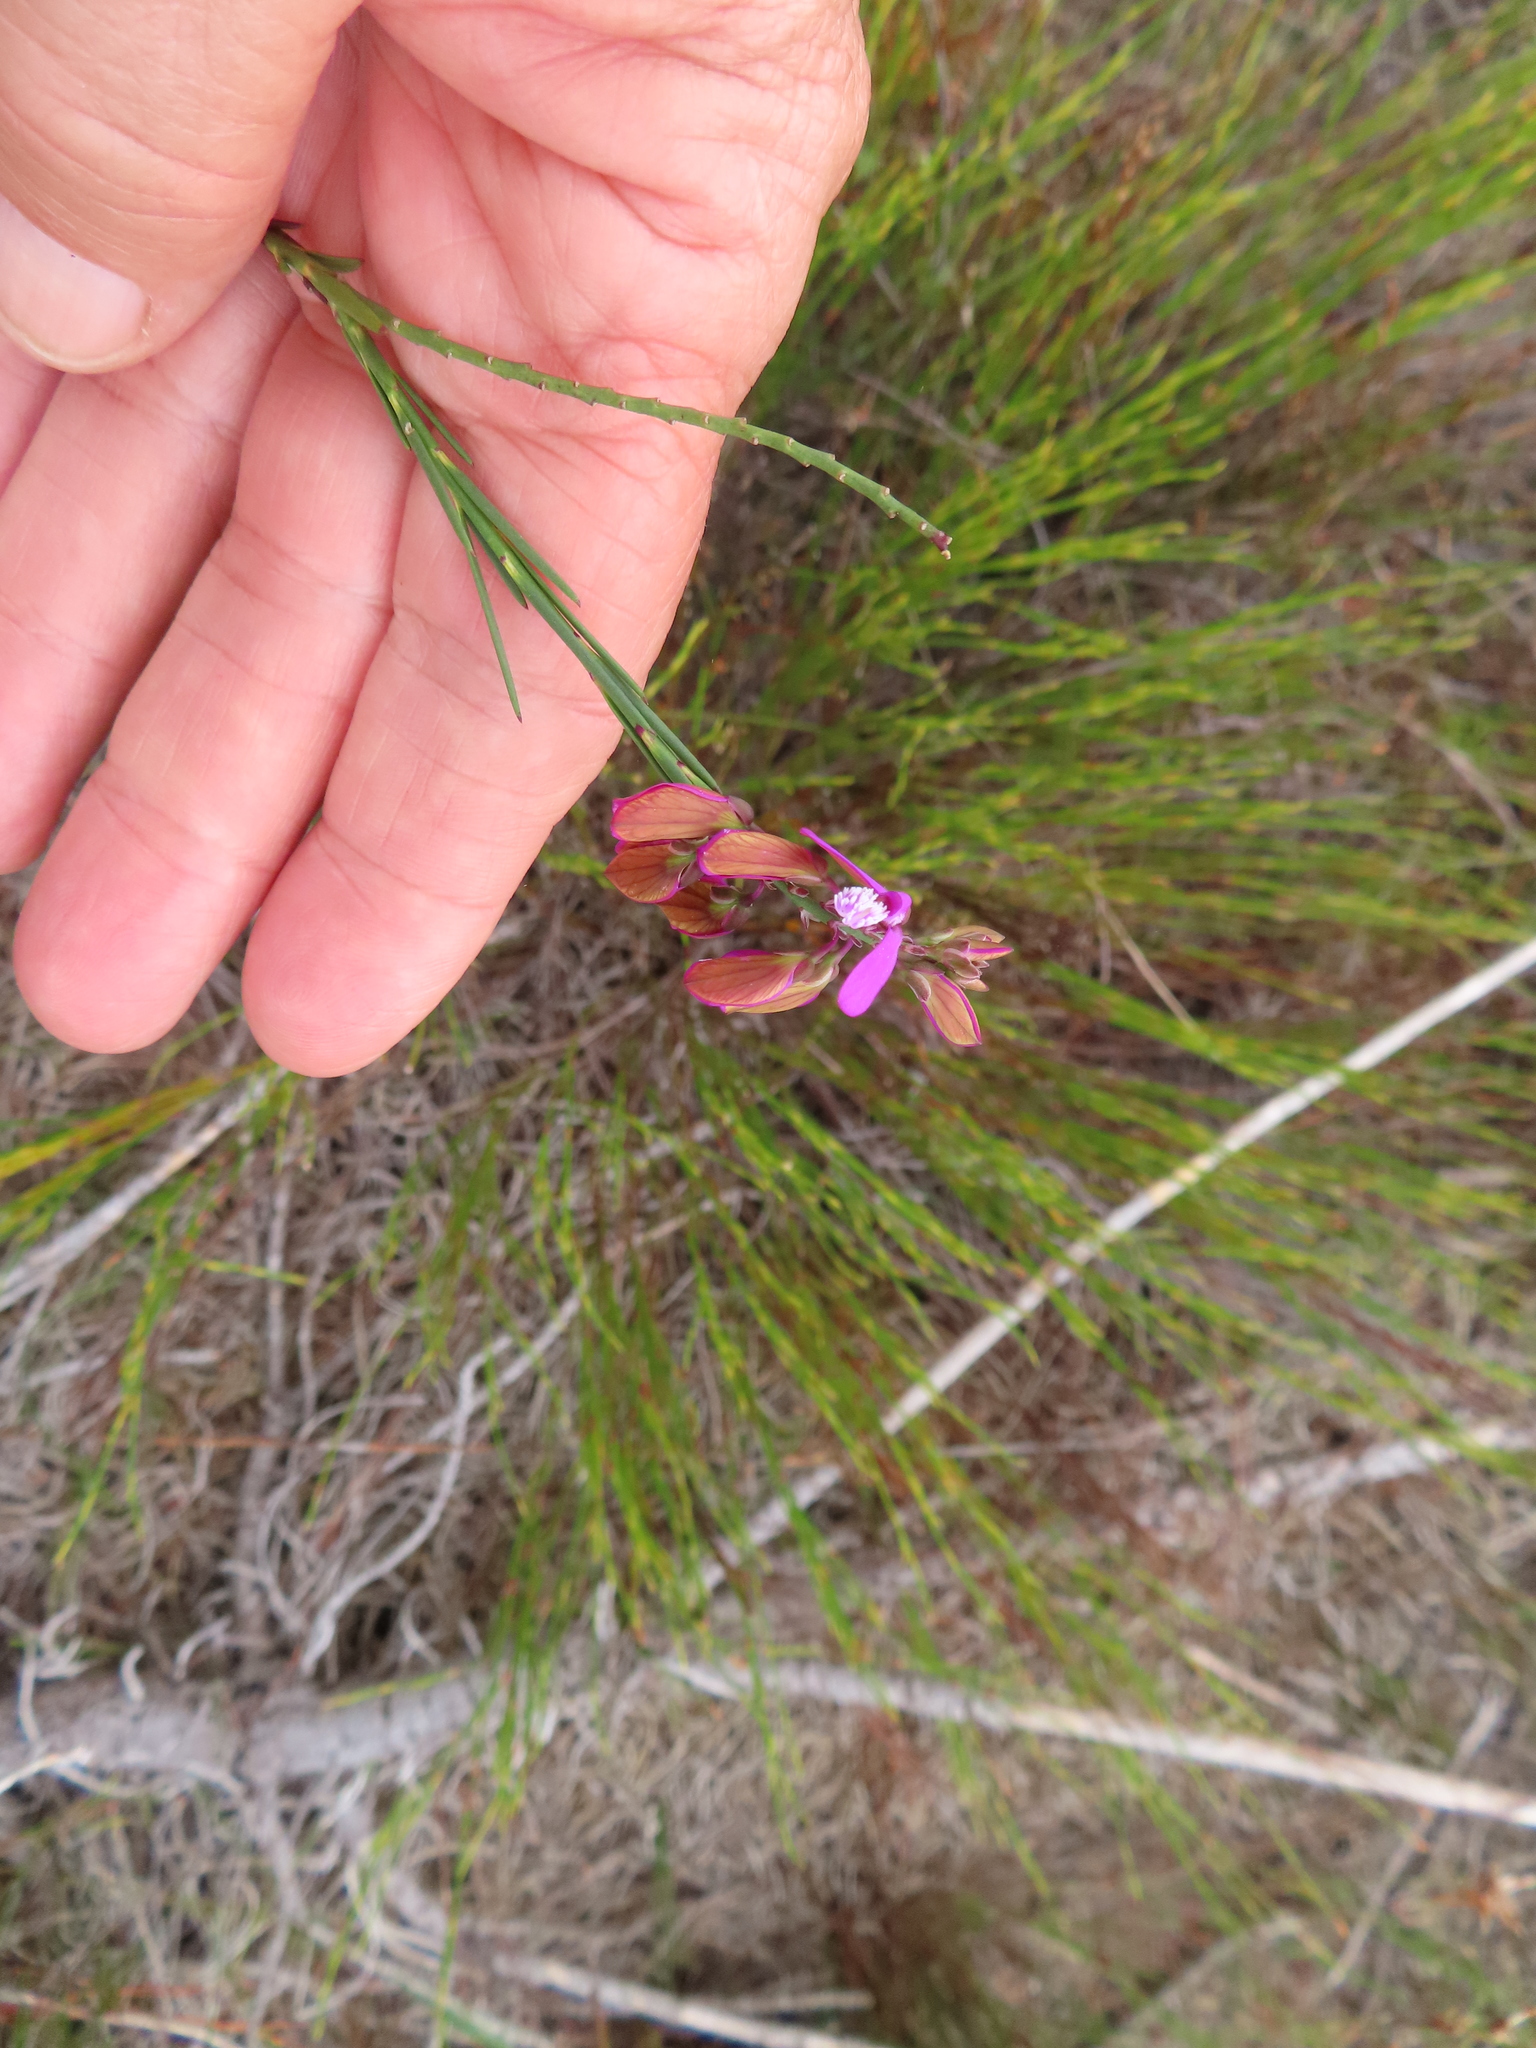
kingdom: Plantae
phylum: Tracheophyta
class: Magnoliopsida
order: Fabales
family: Polygalaceae
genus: Polygala
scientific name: Polygala garcini
